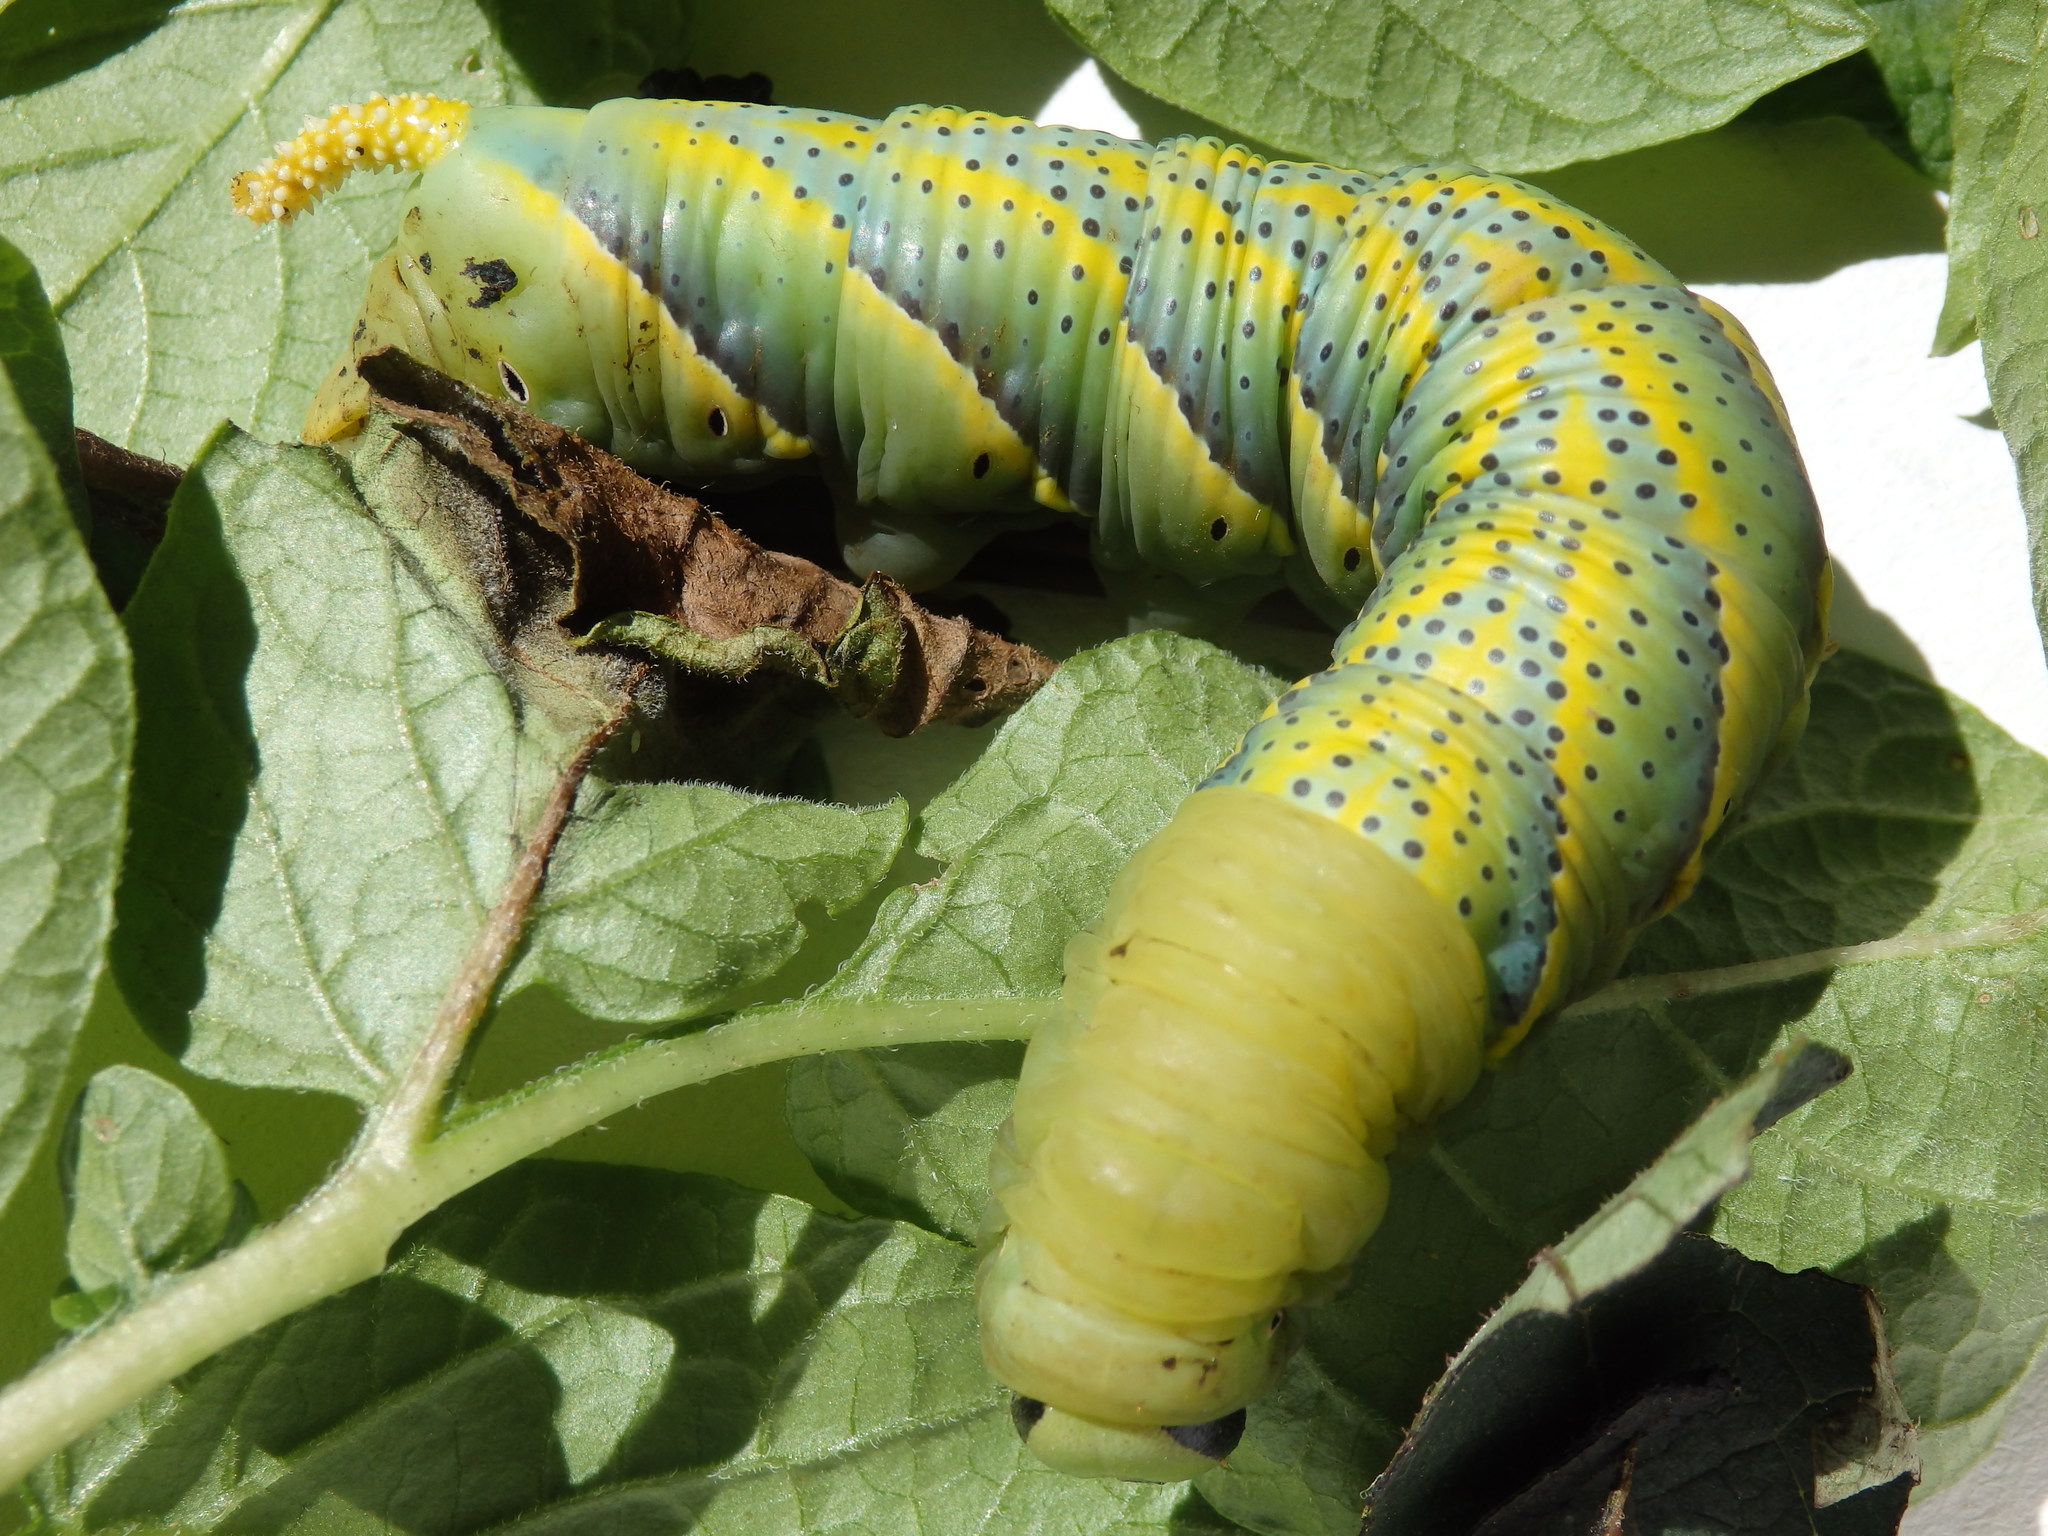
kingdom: Animalia
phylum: Arthropoda
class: Insecta
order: Lepidoptera
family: Sphingidae
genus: Acherontia
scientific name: Acherontia atropos
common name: Death's-head hawk moth
